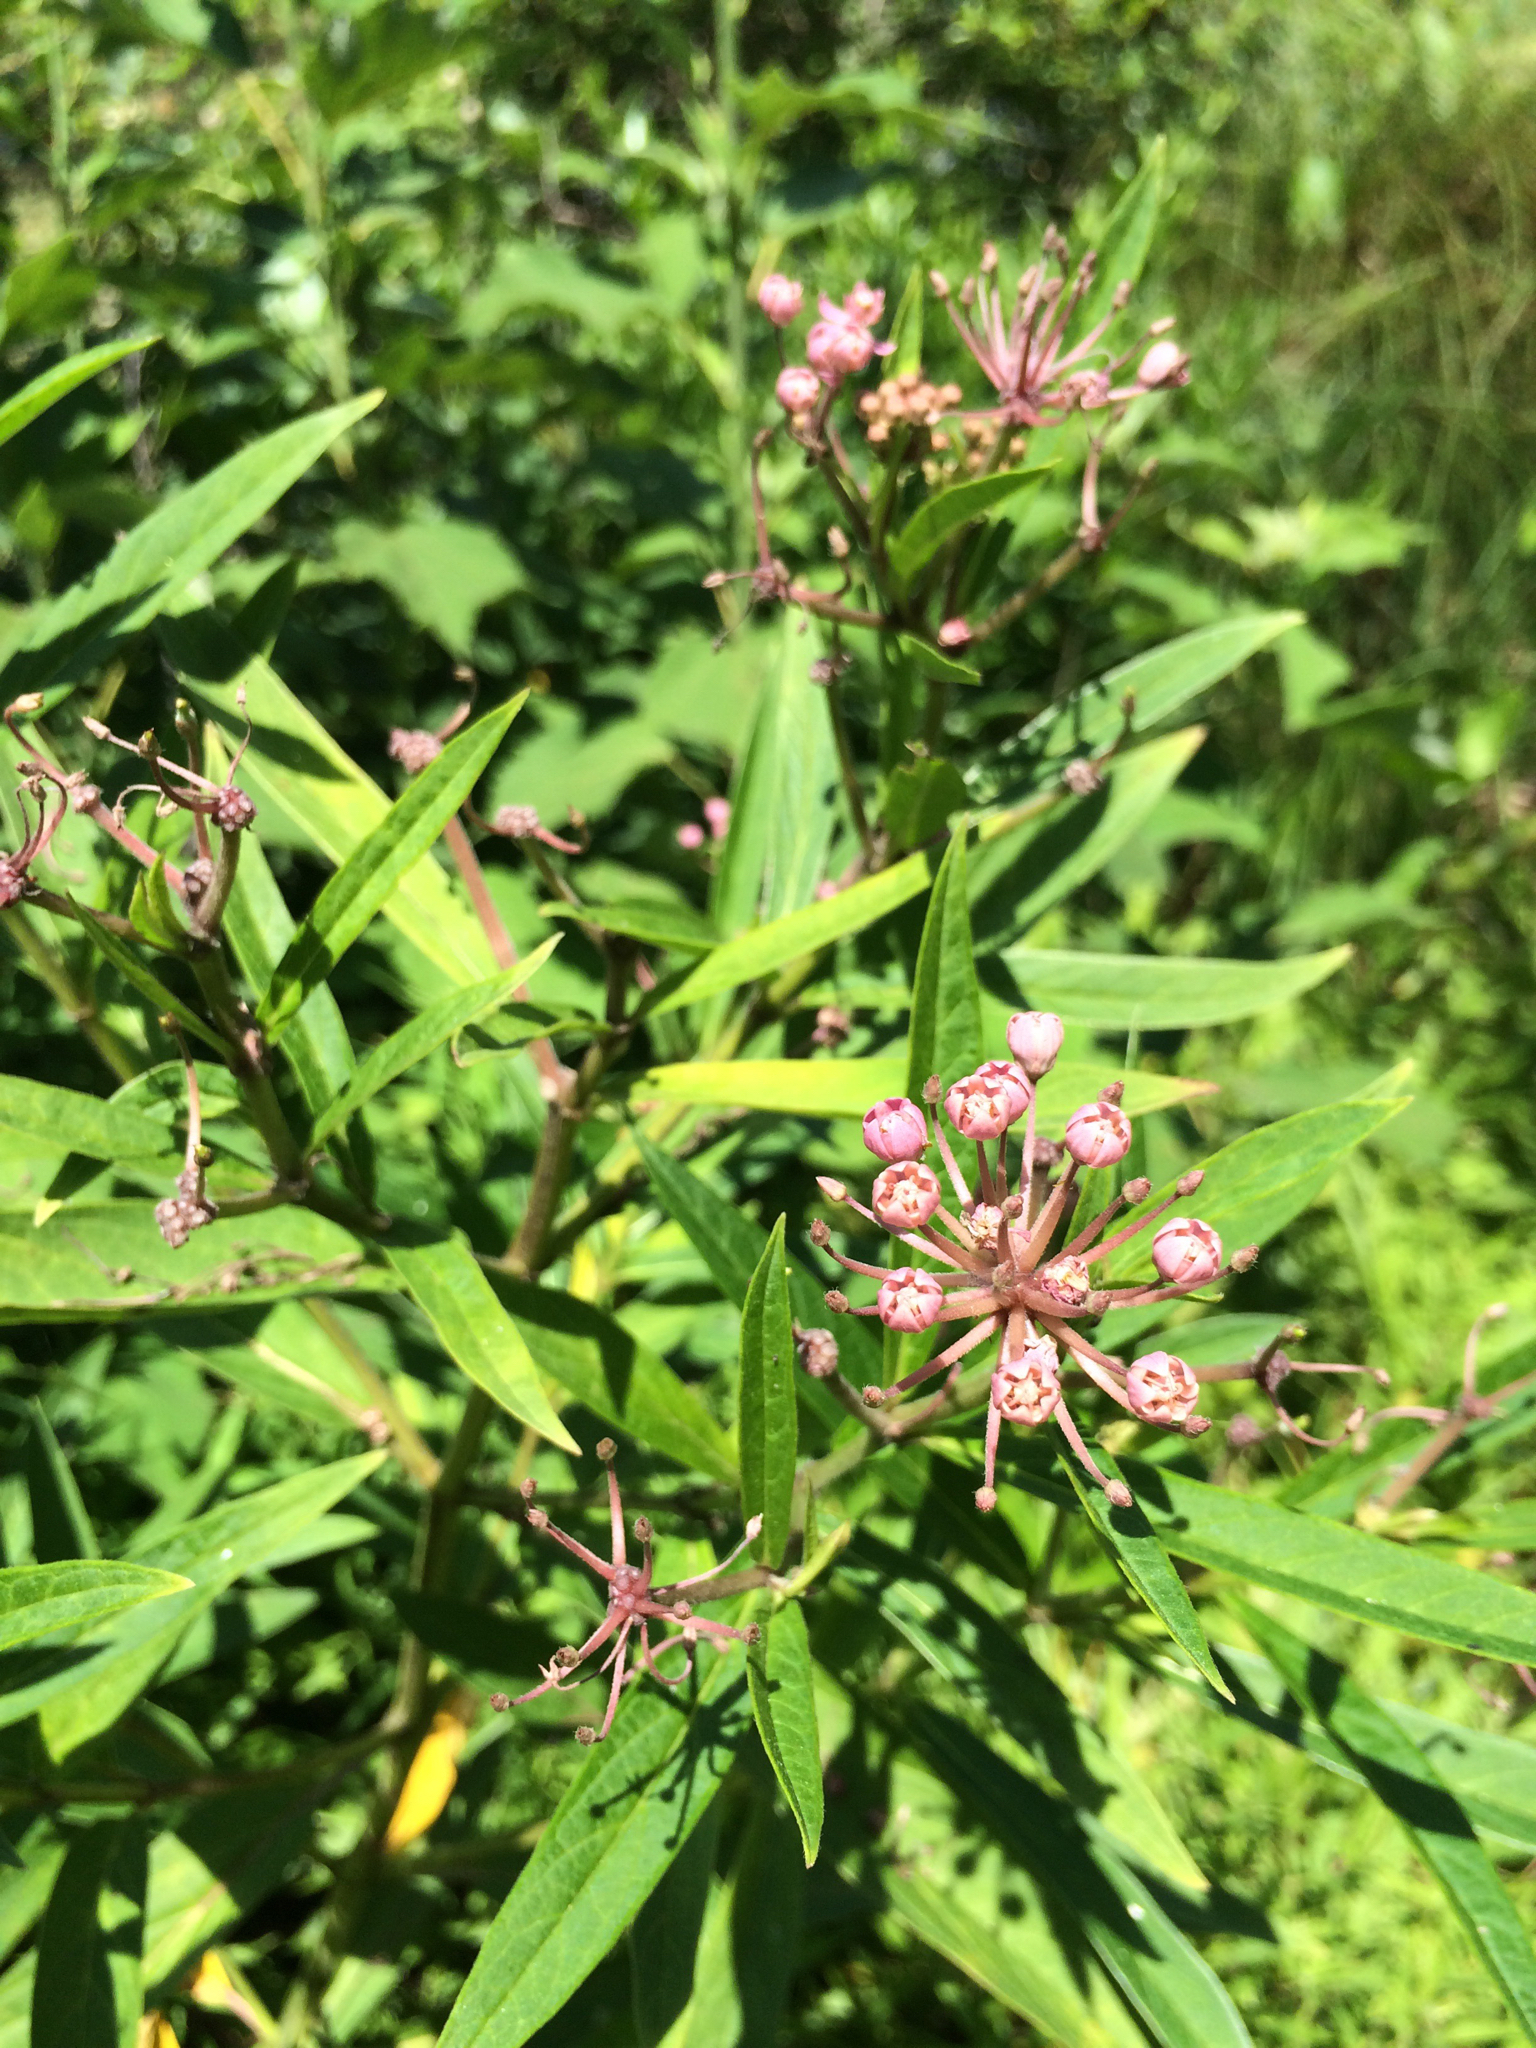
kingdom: Plantae
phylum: Tracheophyta
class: Magnoliopsida
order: Gentianales
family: Apocynaceae
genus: Asclepias
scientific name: Asclepias incarnata
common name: Swamp milkweed
